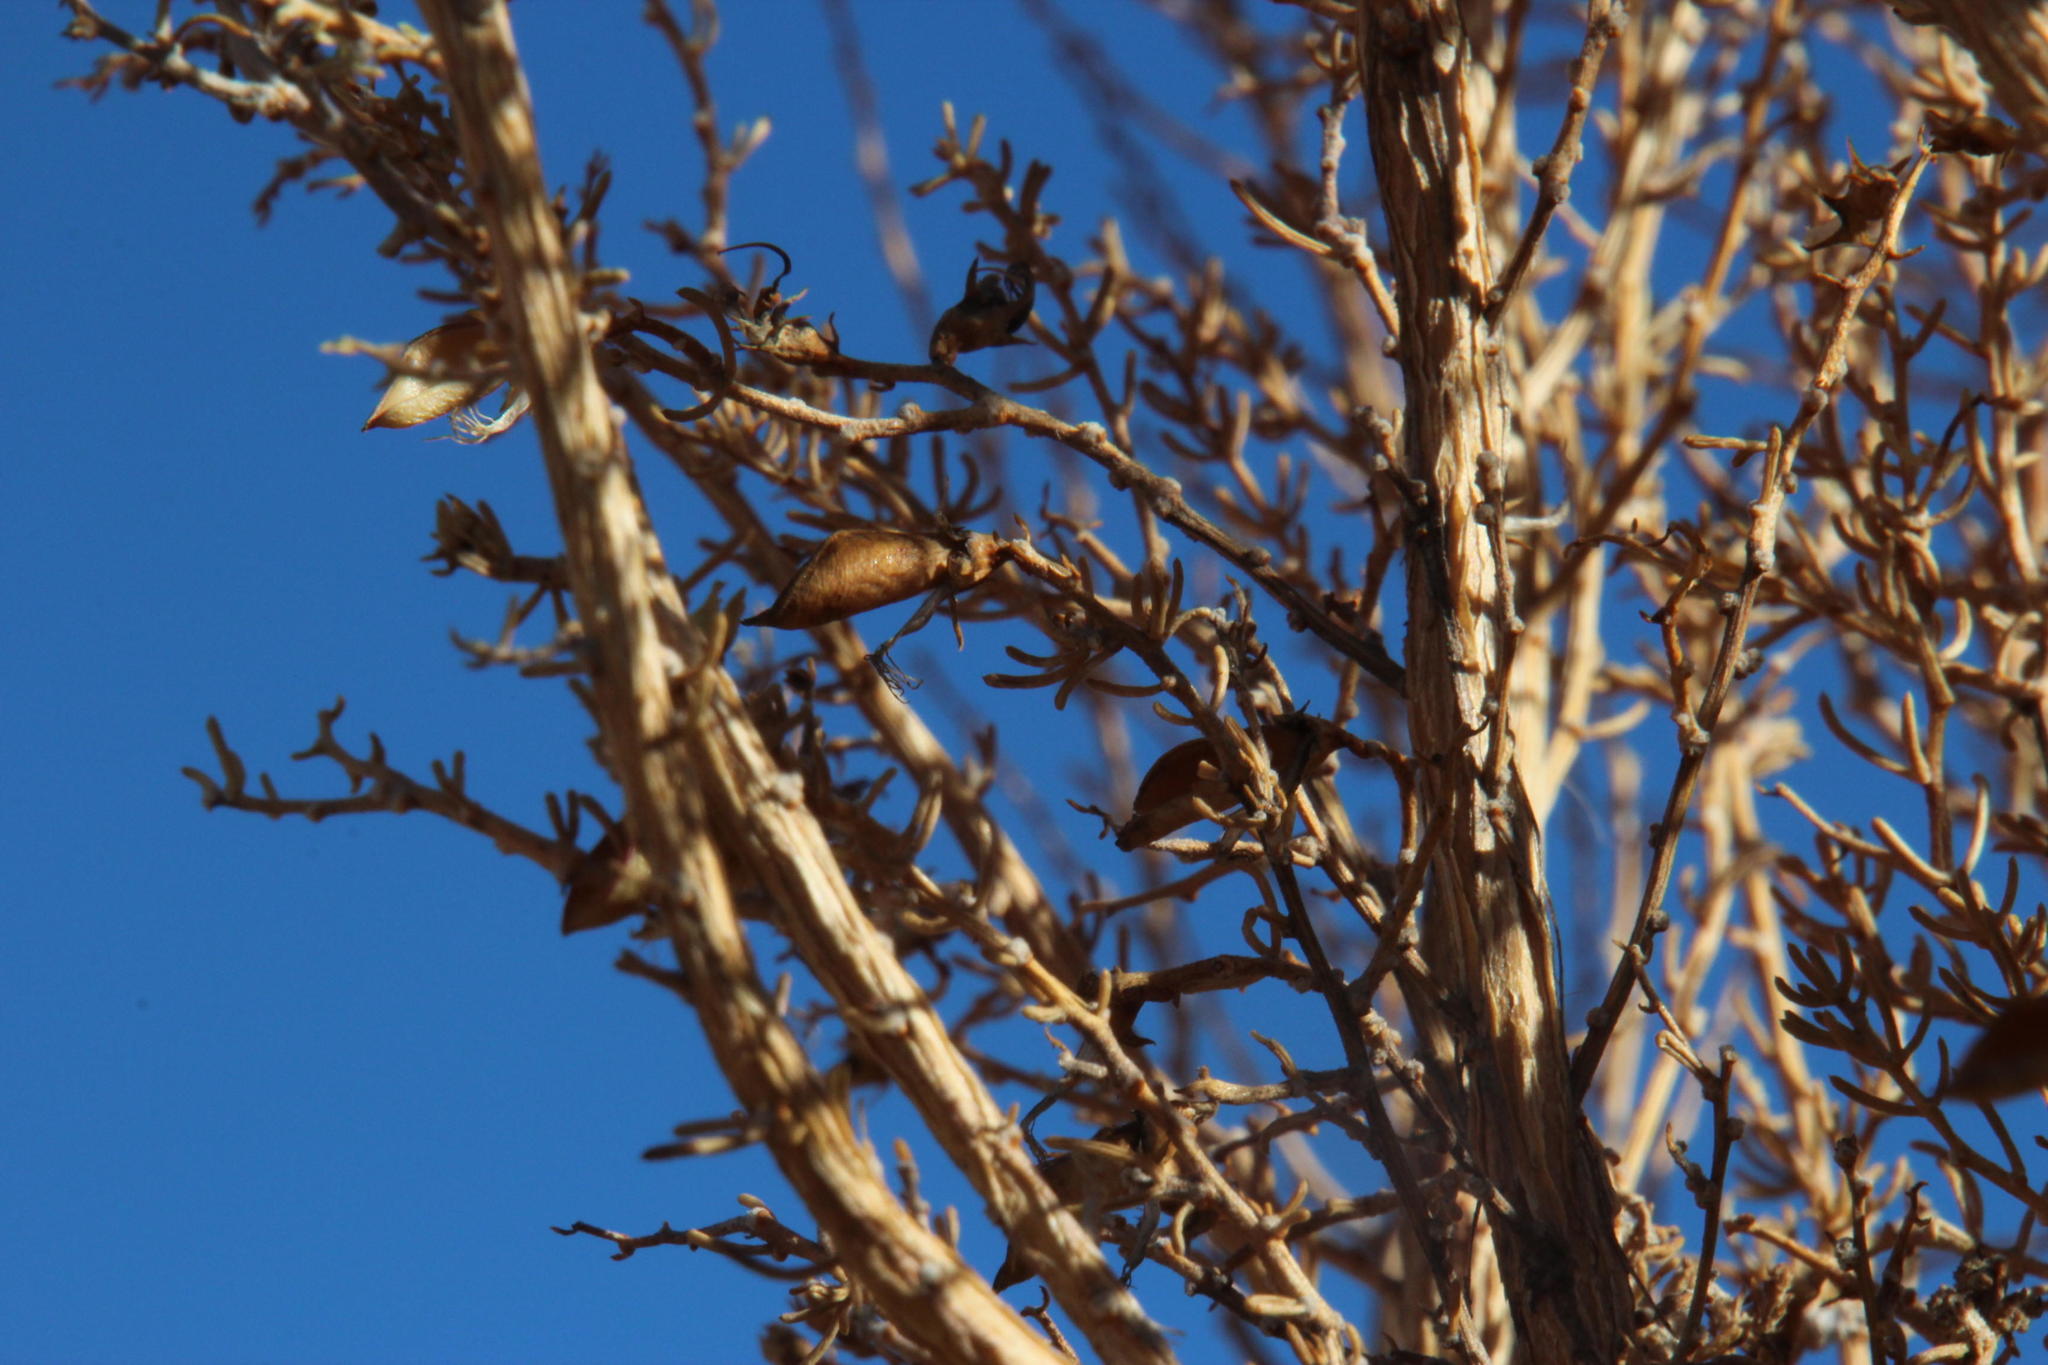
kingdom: Plantae
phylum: Tracheophyta
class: Magnoliopsida
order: Fabales
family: Fabaceae
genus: Aspalathus
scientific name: Aspalathus dianthopora
